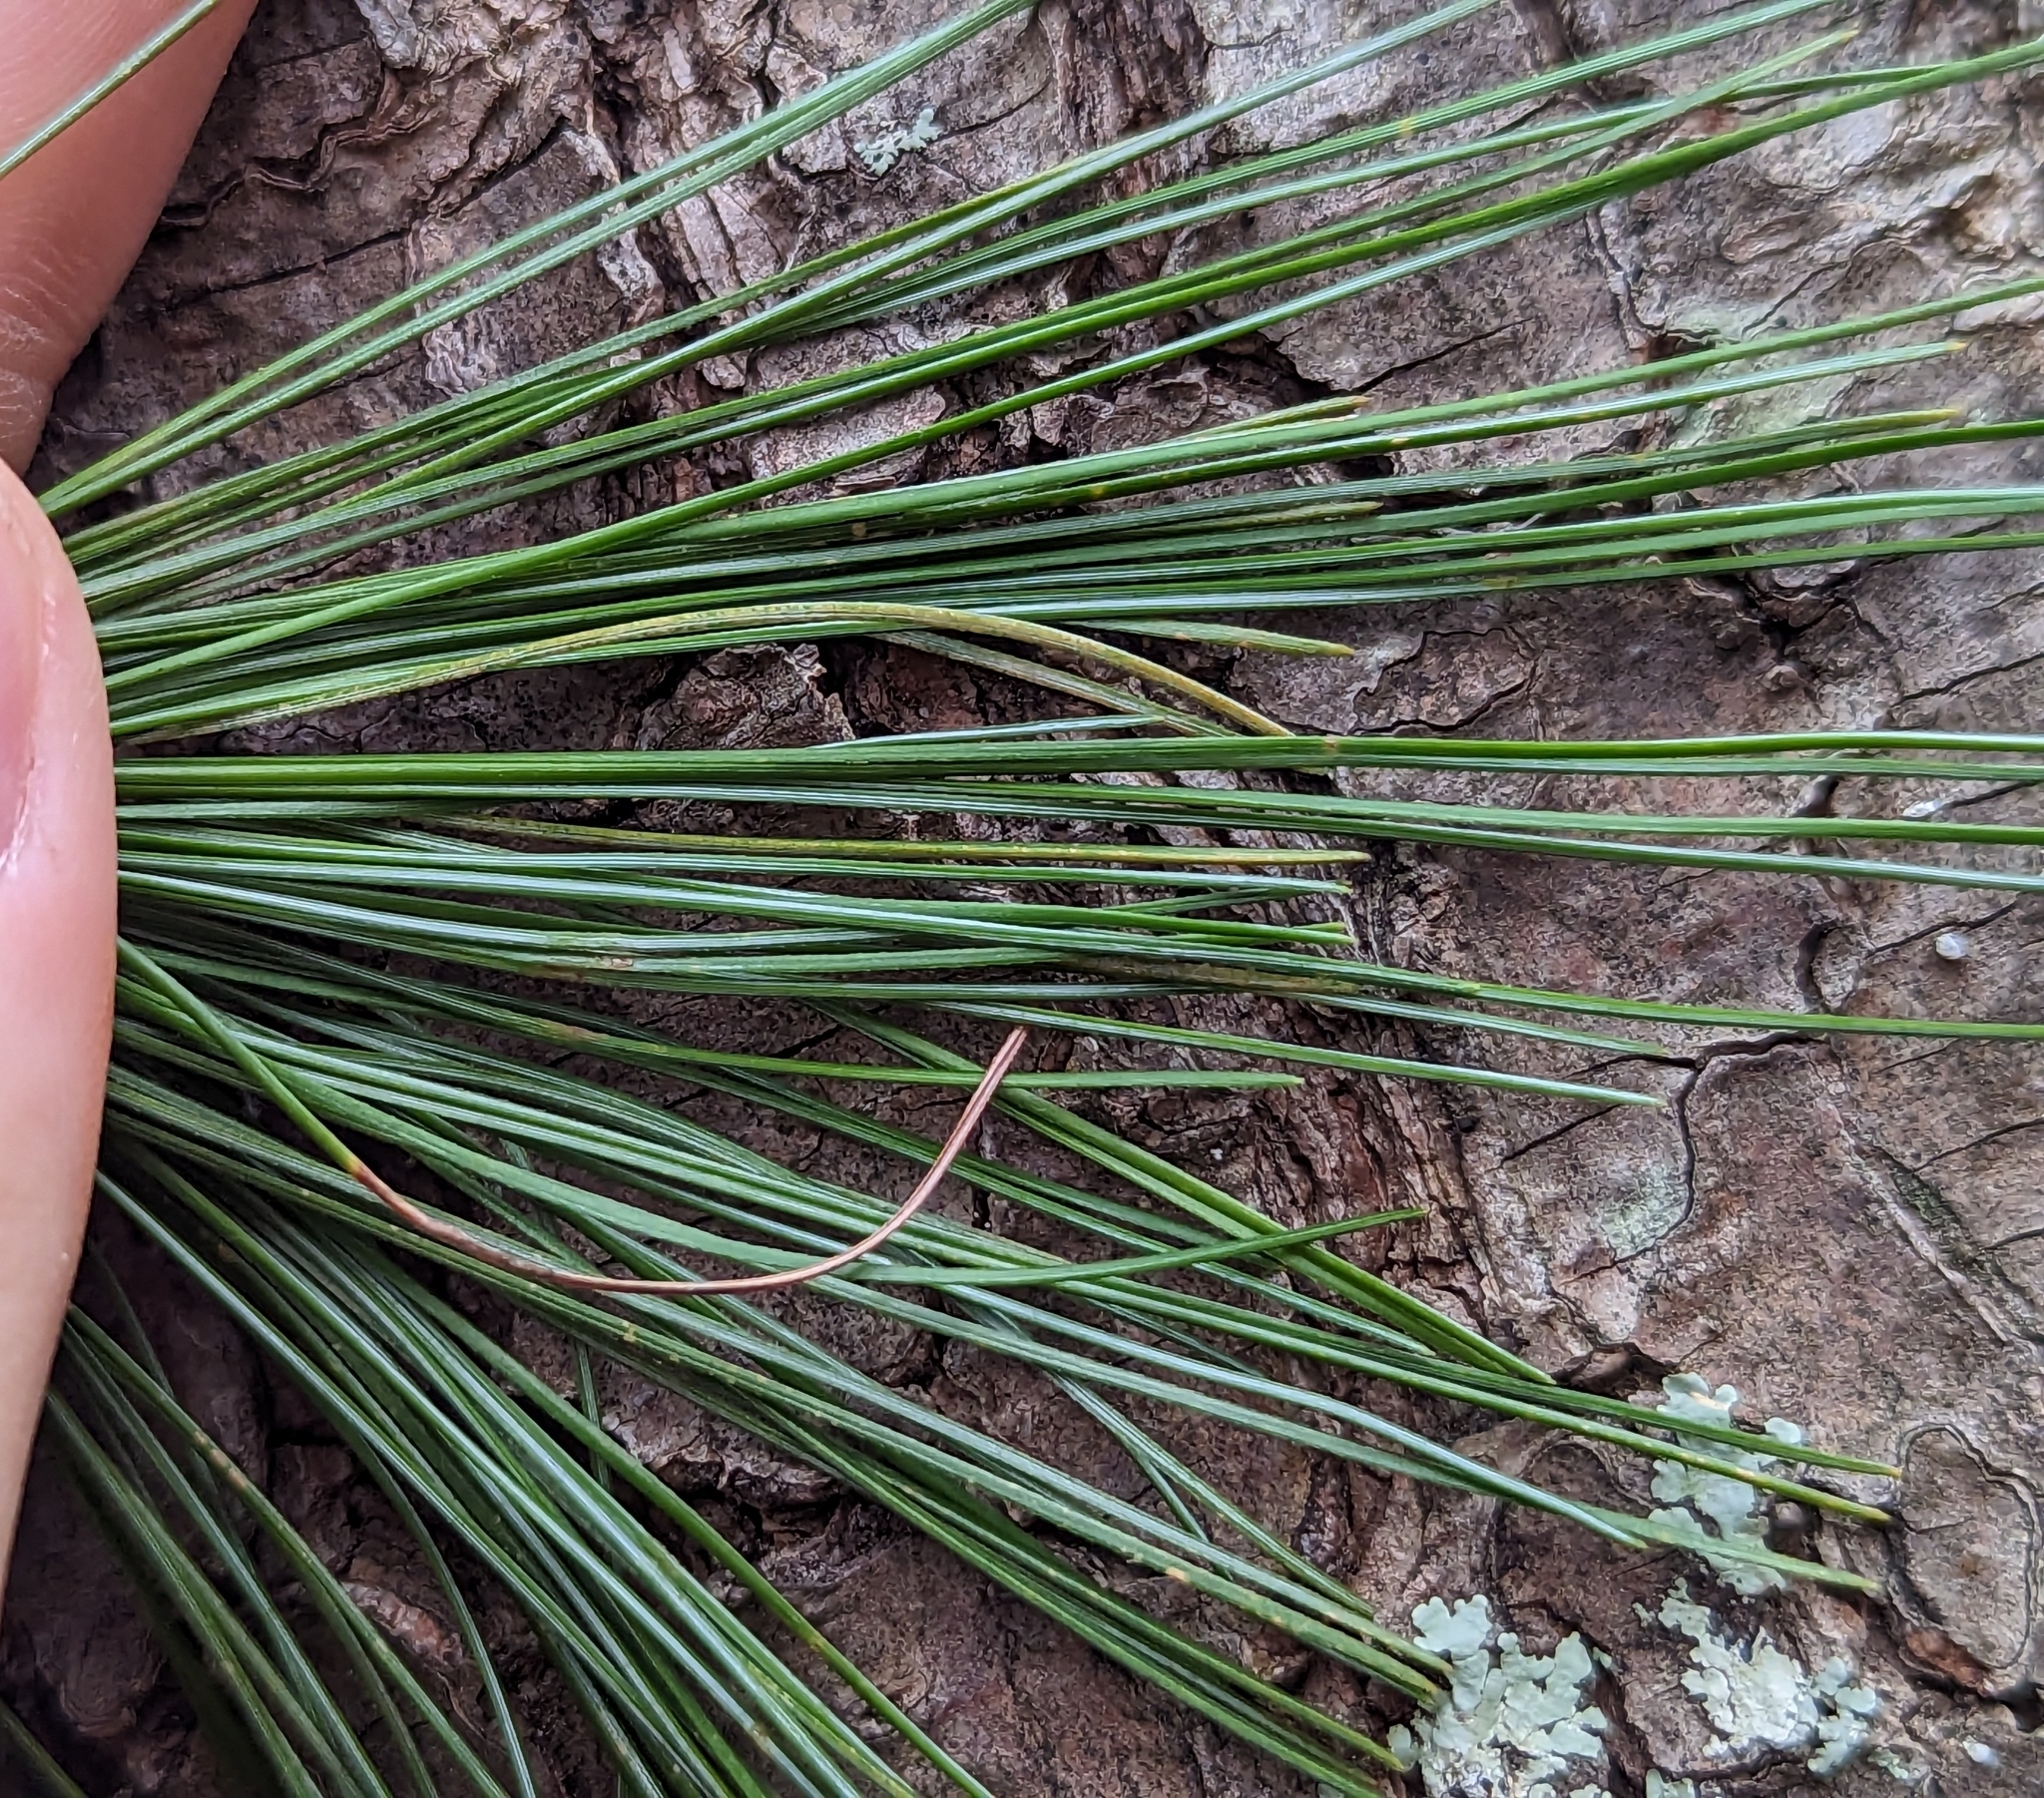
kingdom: Plantae
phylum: Tracheophyta
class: Pinopsida
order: Pinales
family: Pinaceae
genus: Pinus
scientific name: Pinus strobus
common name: Weymouth pine
